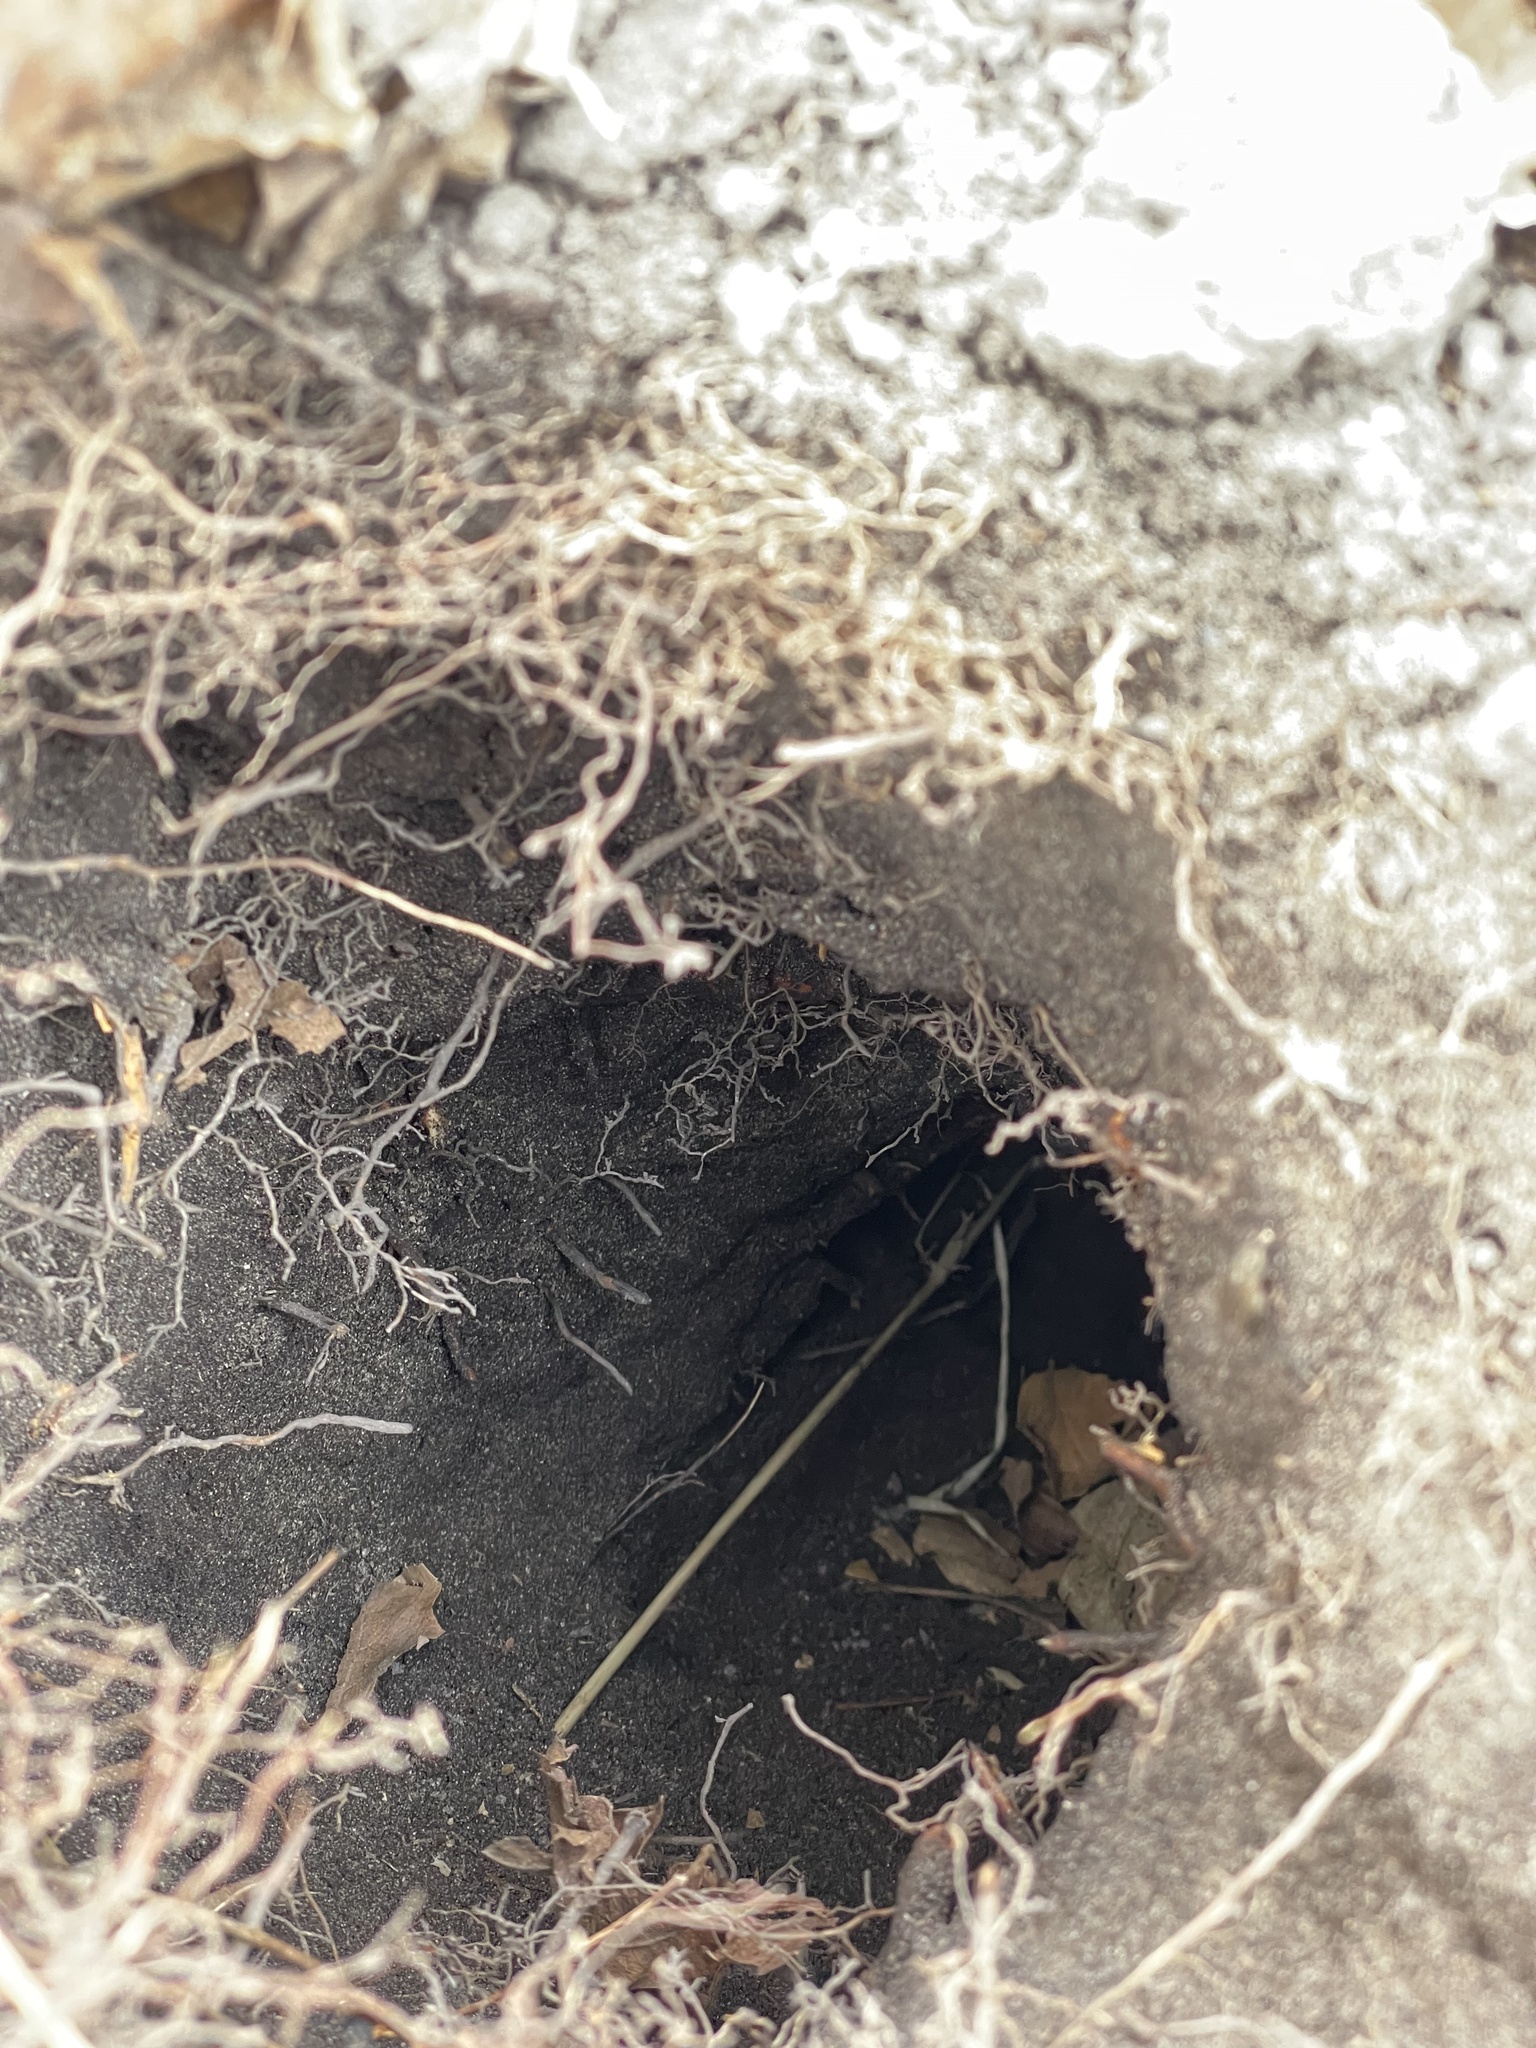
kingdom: Animalia
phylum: Chordata
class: Mammalia
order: Rodentia
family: Sciuridae
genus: Marmota
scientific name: Marmota monax
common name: Groundhog
